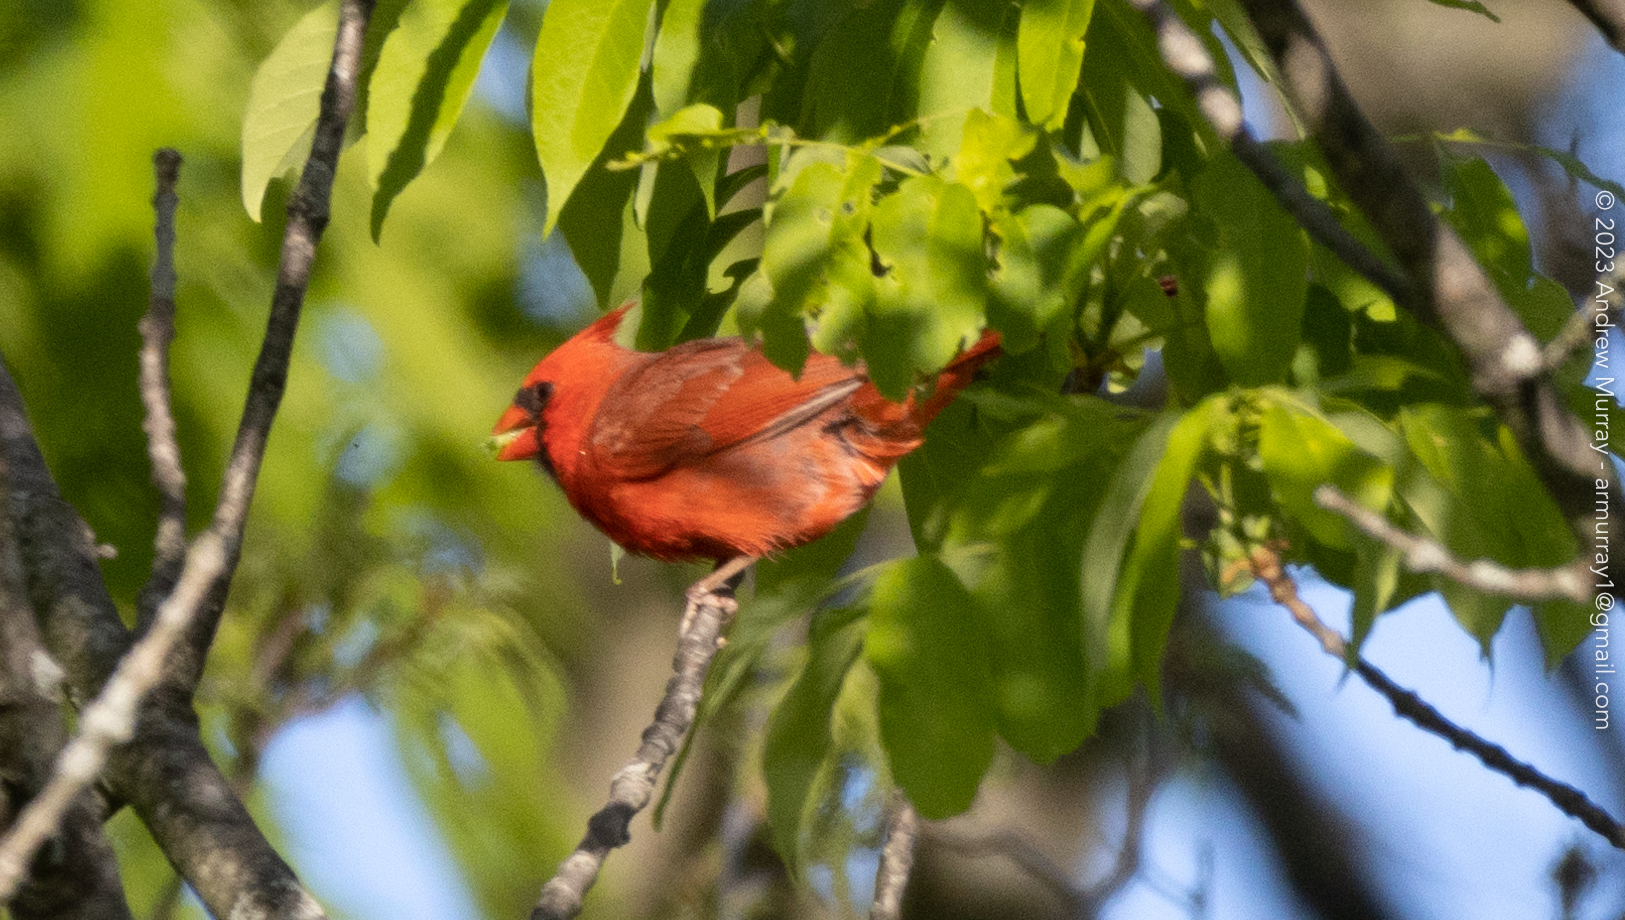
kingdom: Animalia
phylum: Chordata
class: Aves
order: Passeriformes
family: Cardinalidae
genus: Cardinalis
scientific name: Cardinalis cardinalis
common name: Northern cardinal
